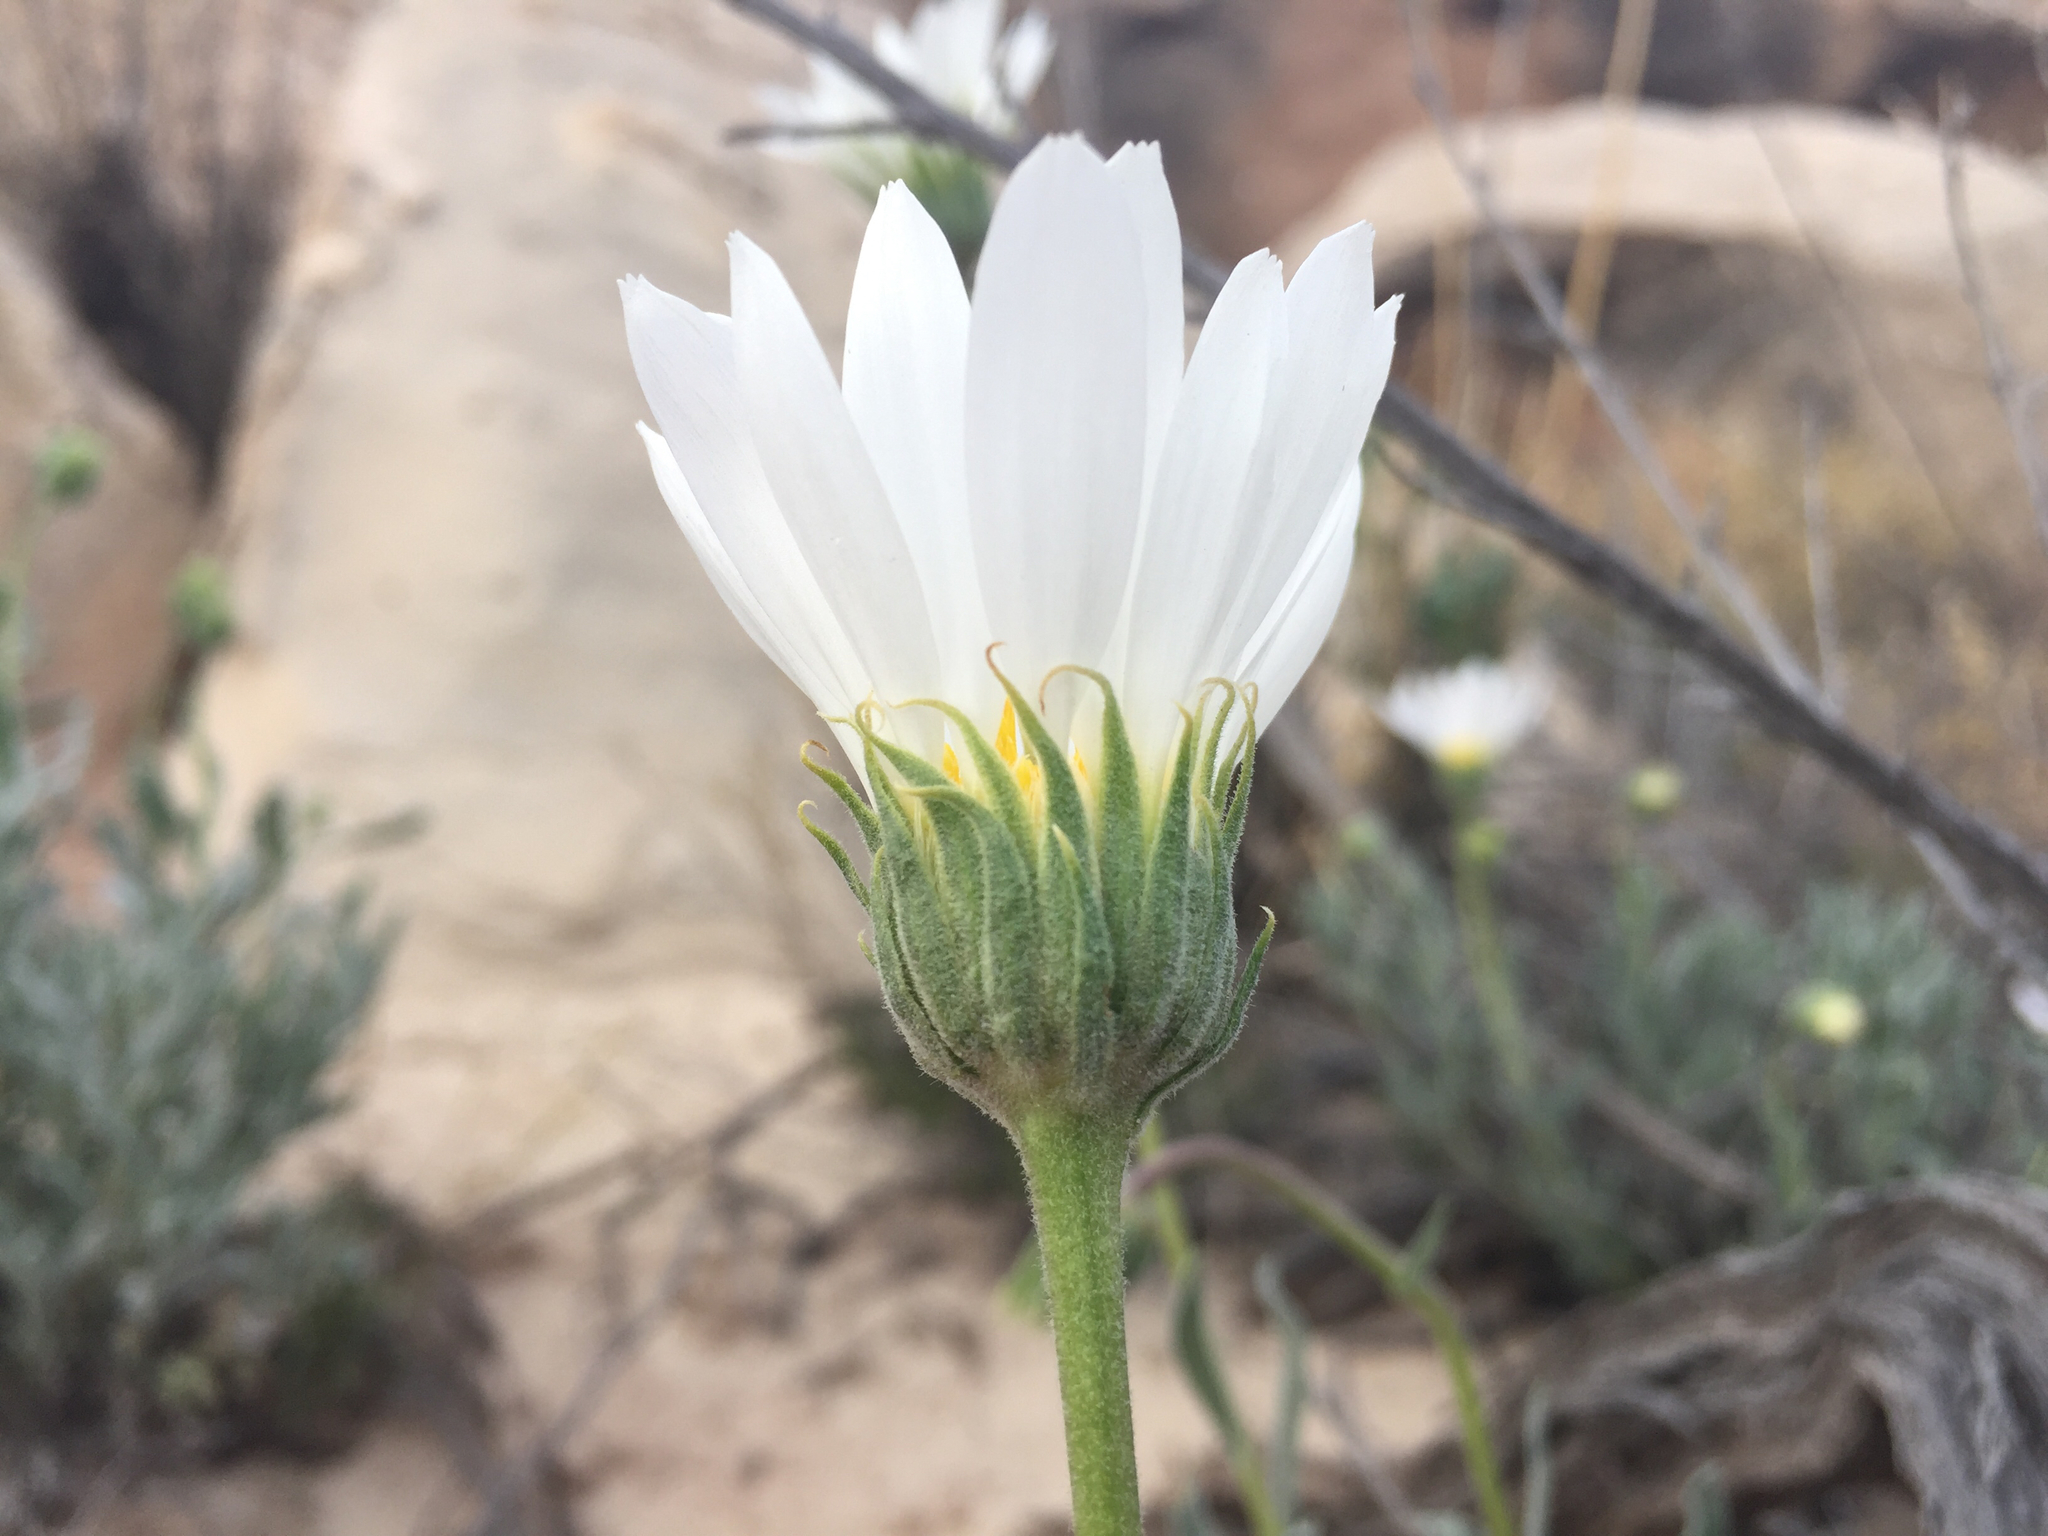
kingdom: Plantae
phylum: Tracheophyta
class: Magnoliopsida
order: Asterales
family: Asteraceae
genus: Xylorhiza
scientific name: Xylorhiza venusta
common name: Cisco woody-aster
